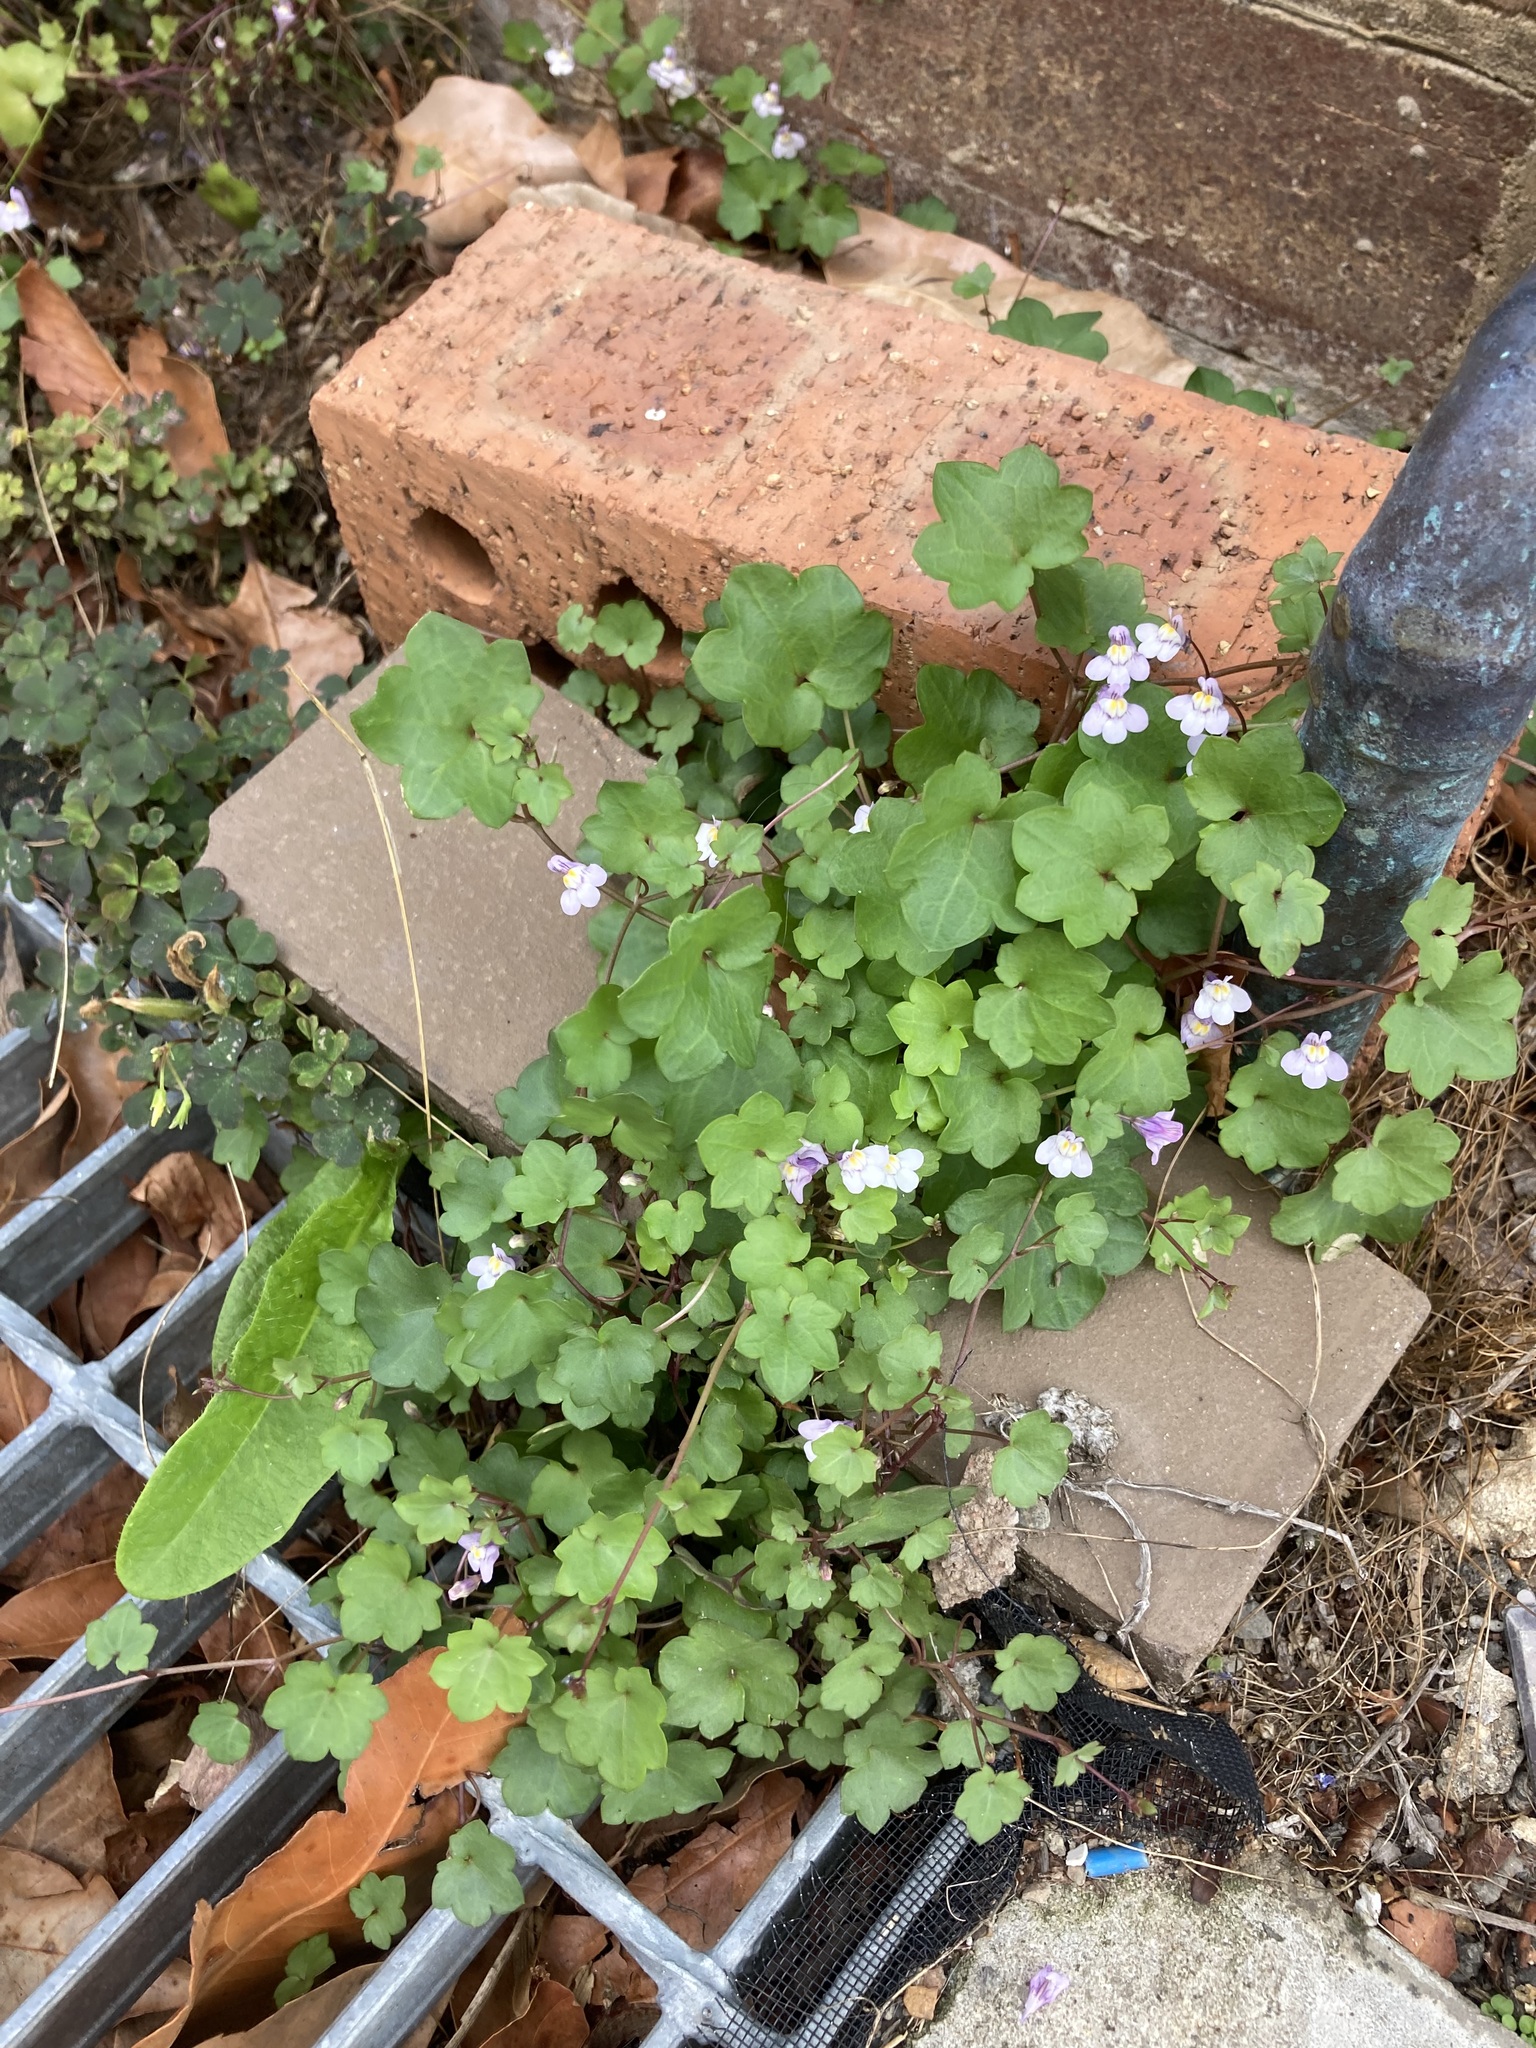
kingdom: Plantae
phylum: Tracheophyta
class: Magnoliopsida
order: Lamiales
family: Plantaginaceae
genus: Cymbalaria
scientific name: Cymbalaria muralis
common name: Ivy-leaved toadflax
